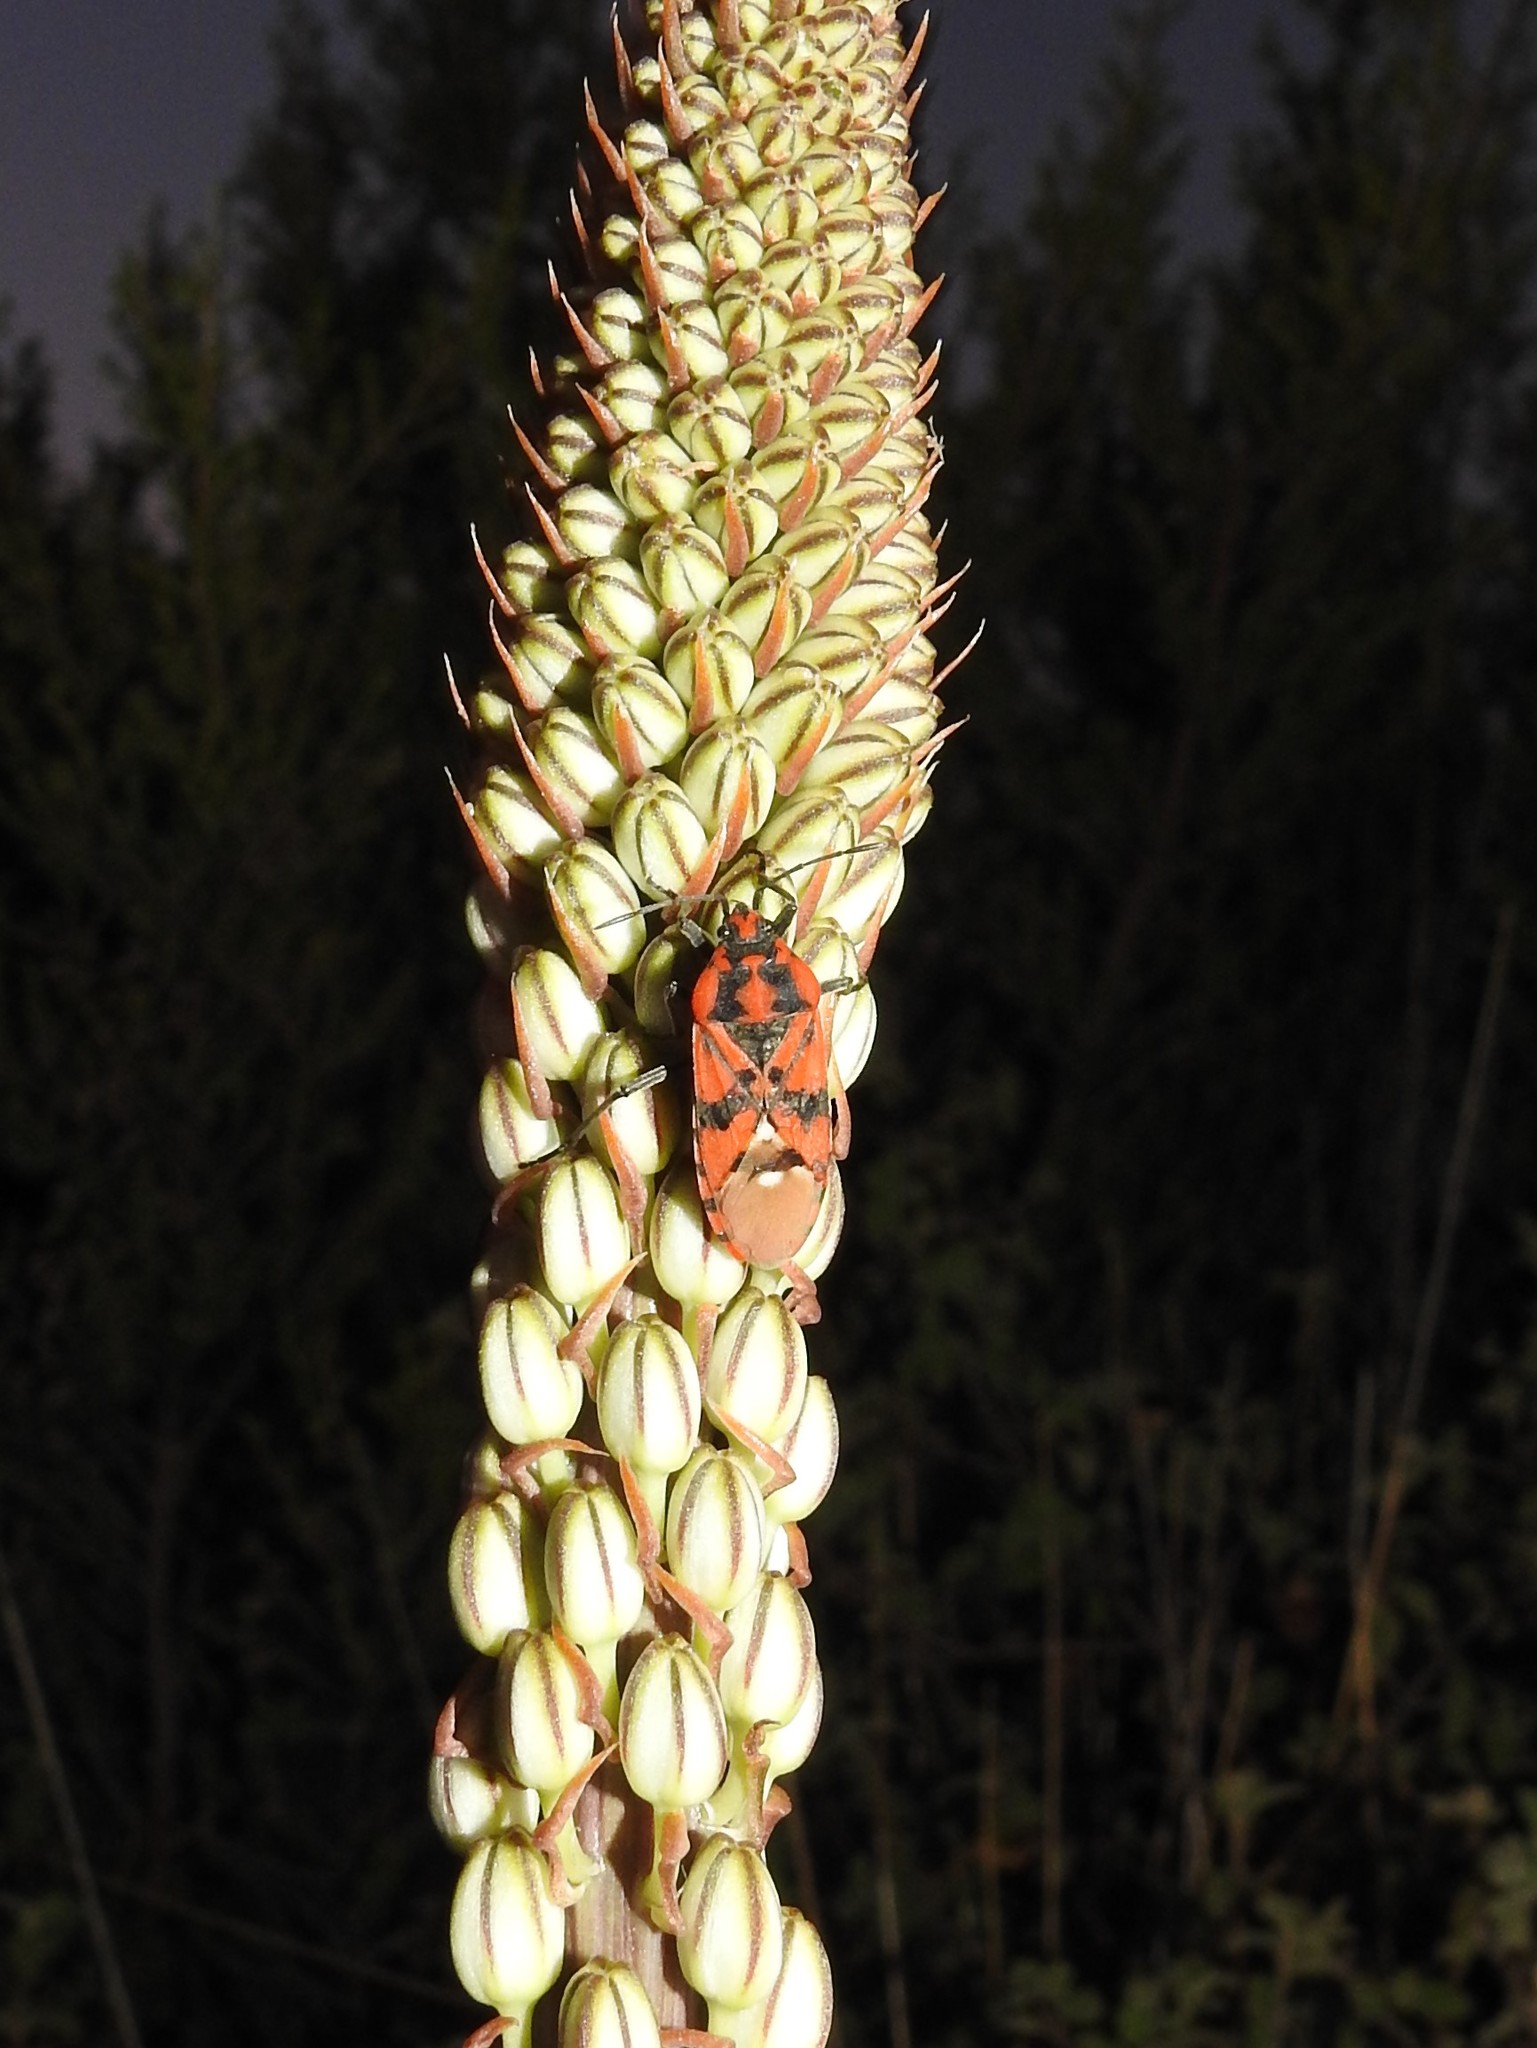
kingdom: Animalia
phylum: Arthropoda
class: Insecta
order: Hemiptera
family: Lygaeidae
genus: Spilostethus
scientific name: Spilostethus pandurus
